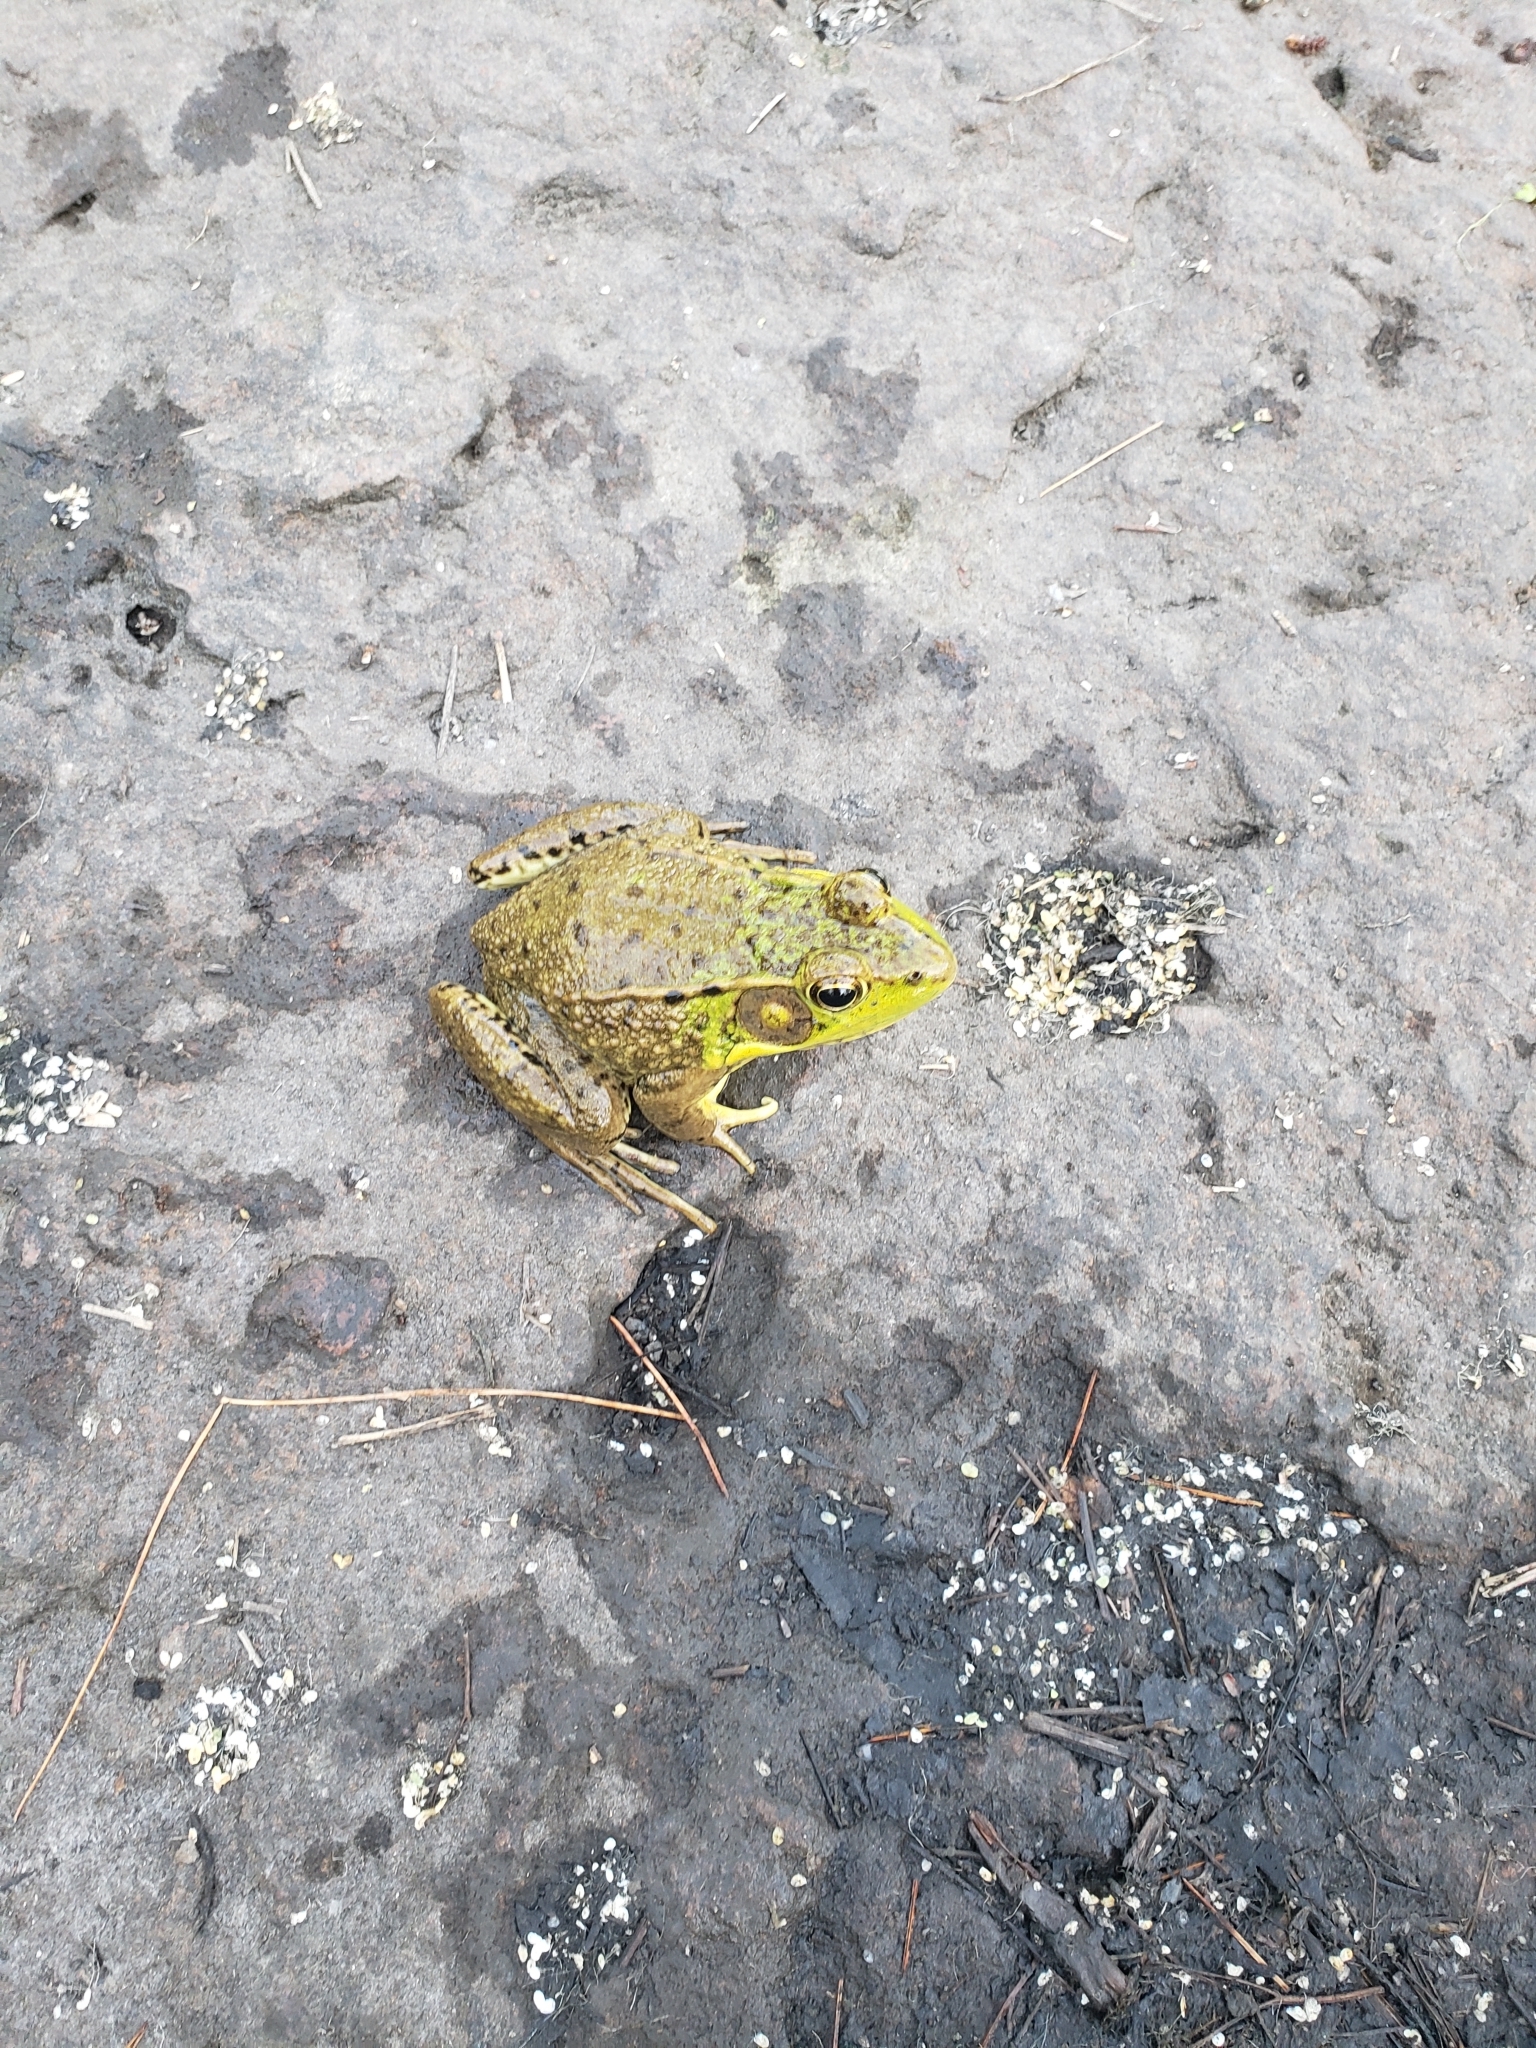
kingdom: Animalia
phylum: Chordata
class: Amphibia
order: Anura
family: Ranidae
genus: Lithobates
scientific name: Lithobates clamitans
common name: Green frog
